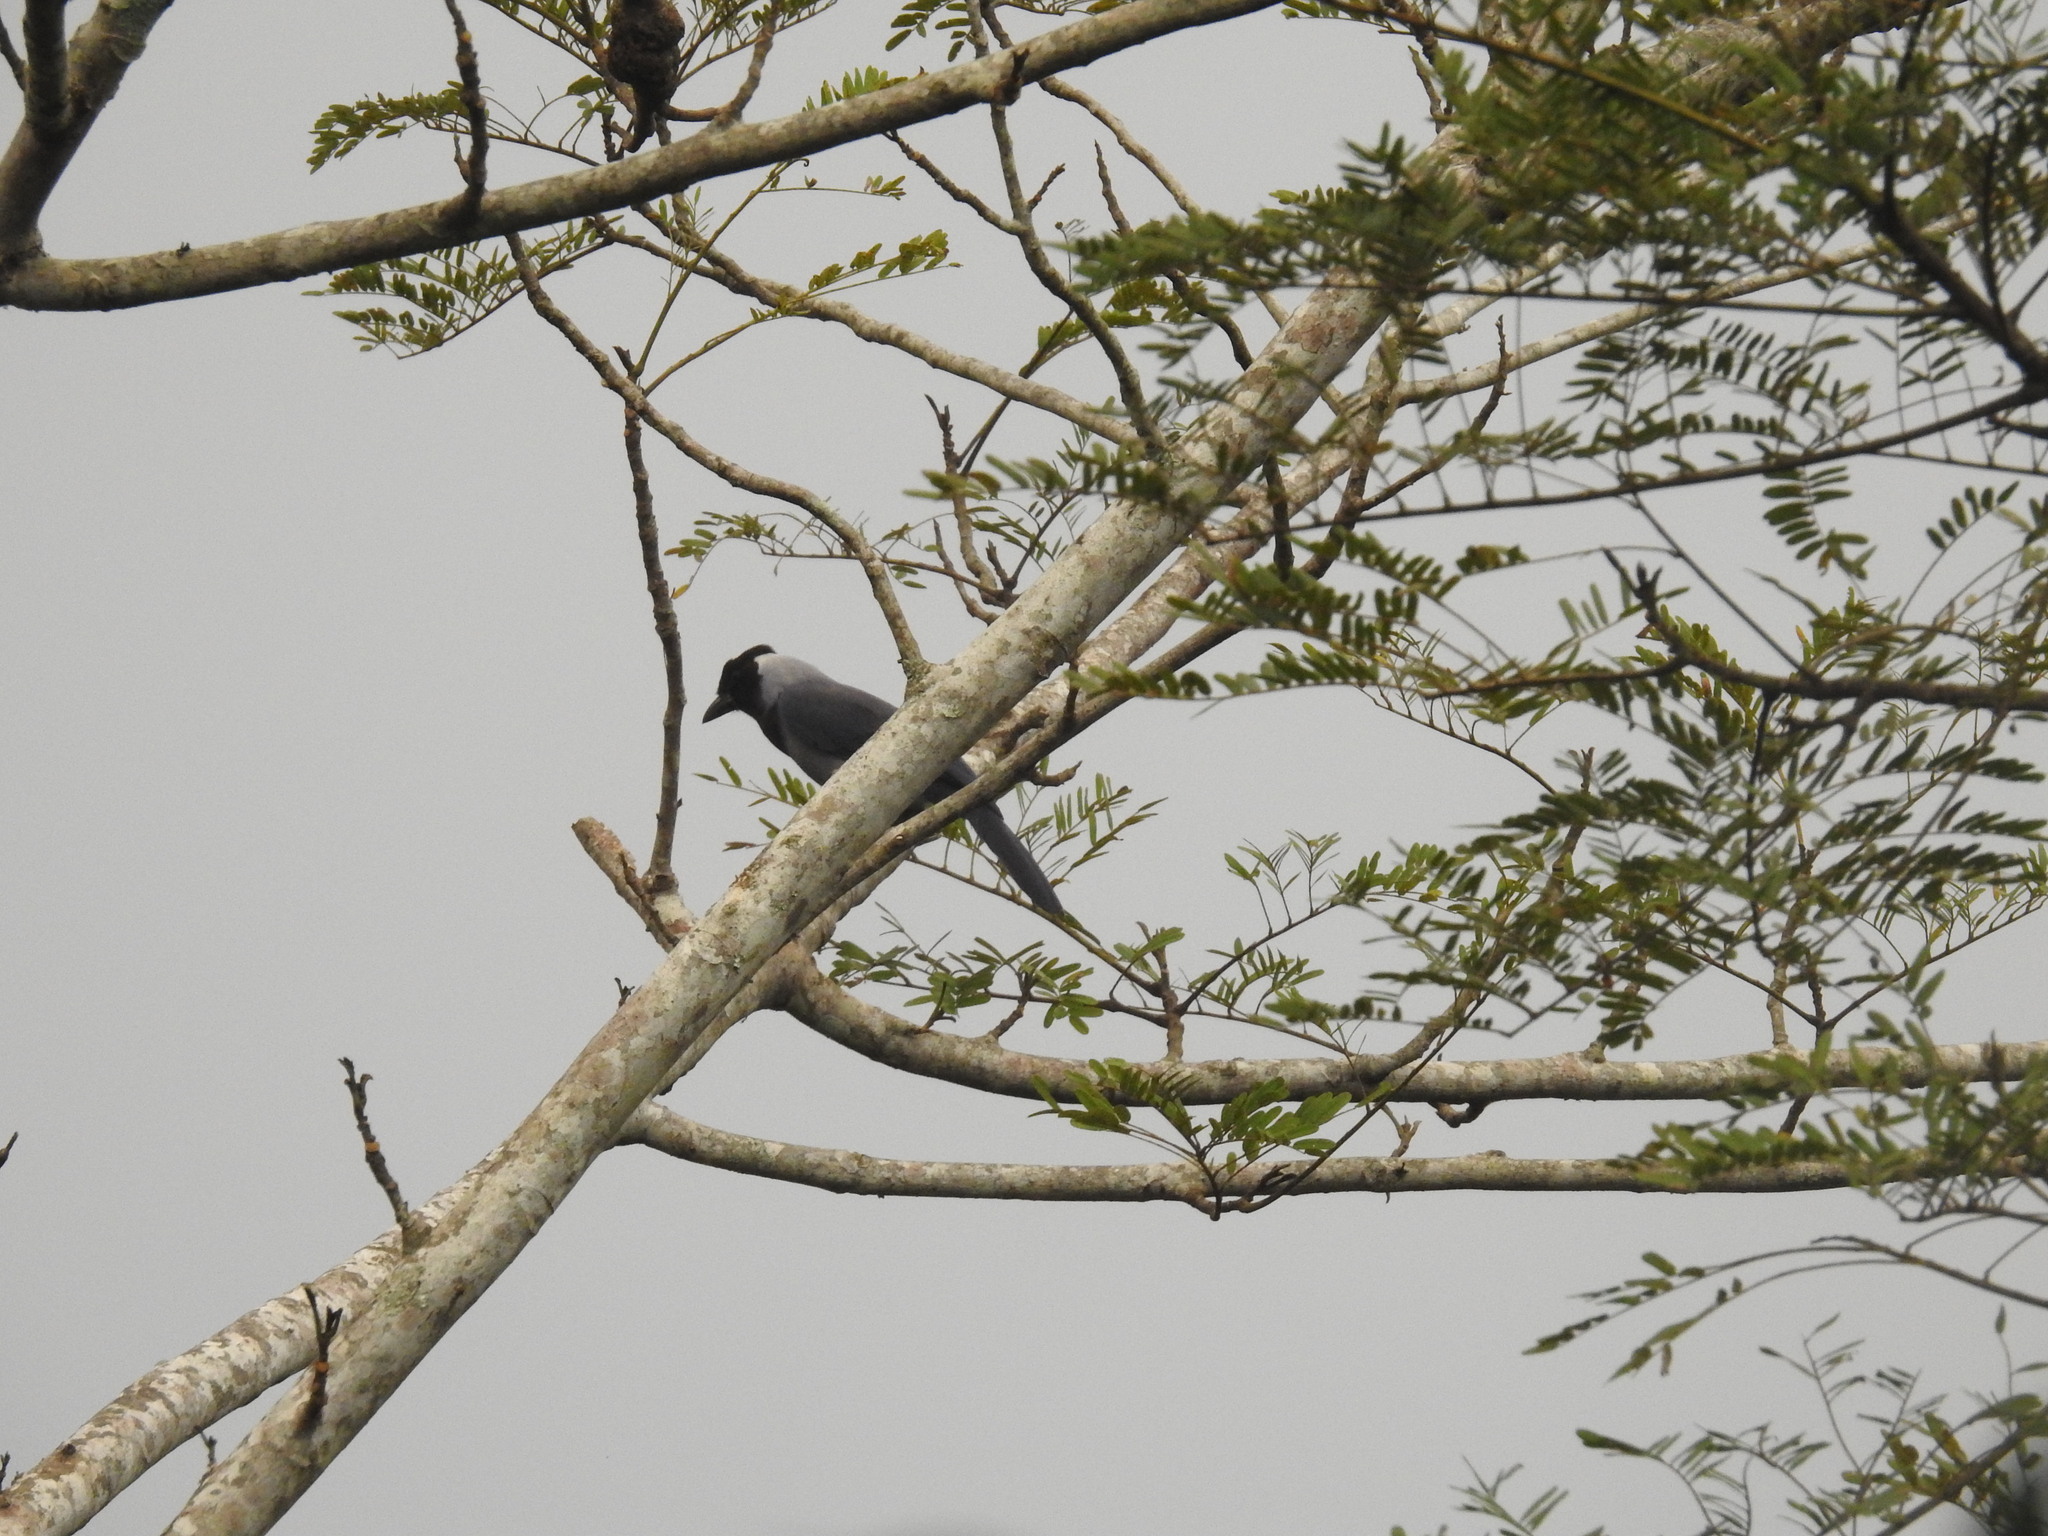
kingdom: Animalia
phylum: Chordata
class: Aves
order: Passeriformes
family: Corvidae
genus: Cyanocorax
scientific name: Cyanocorax violaceus
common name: Violaceous jay
